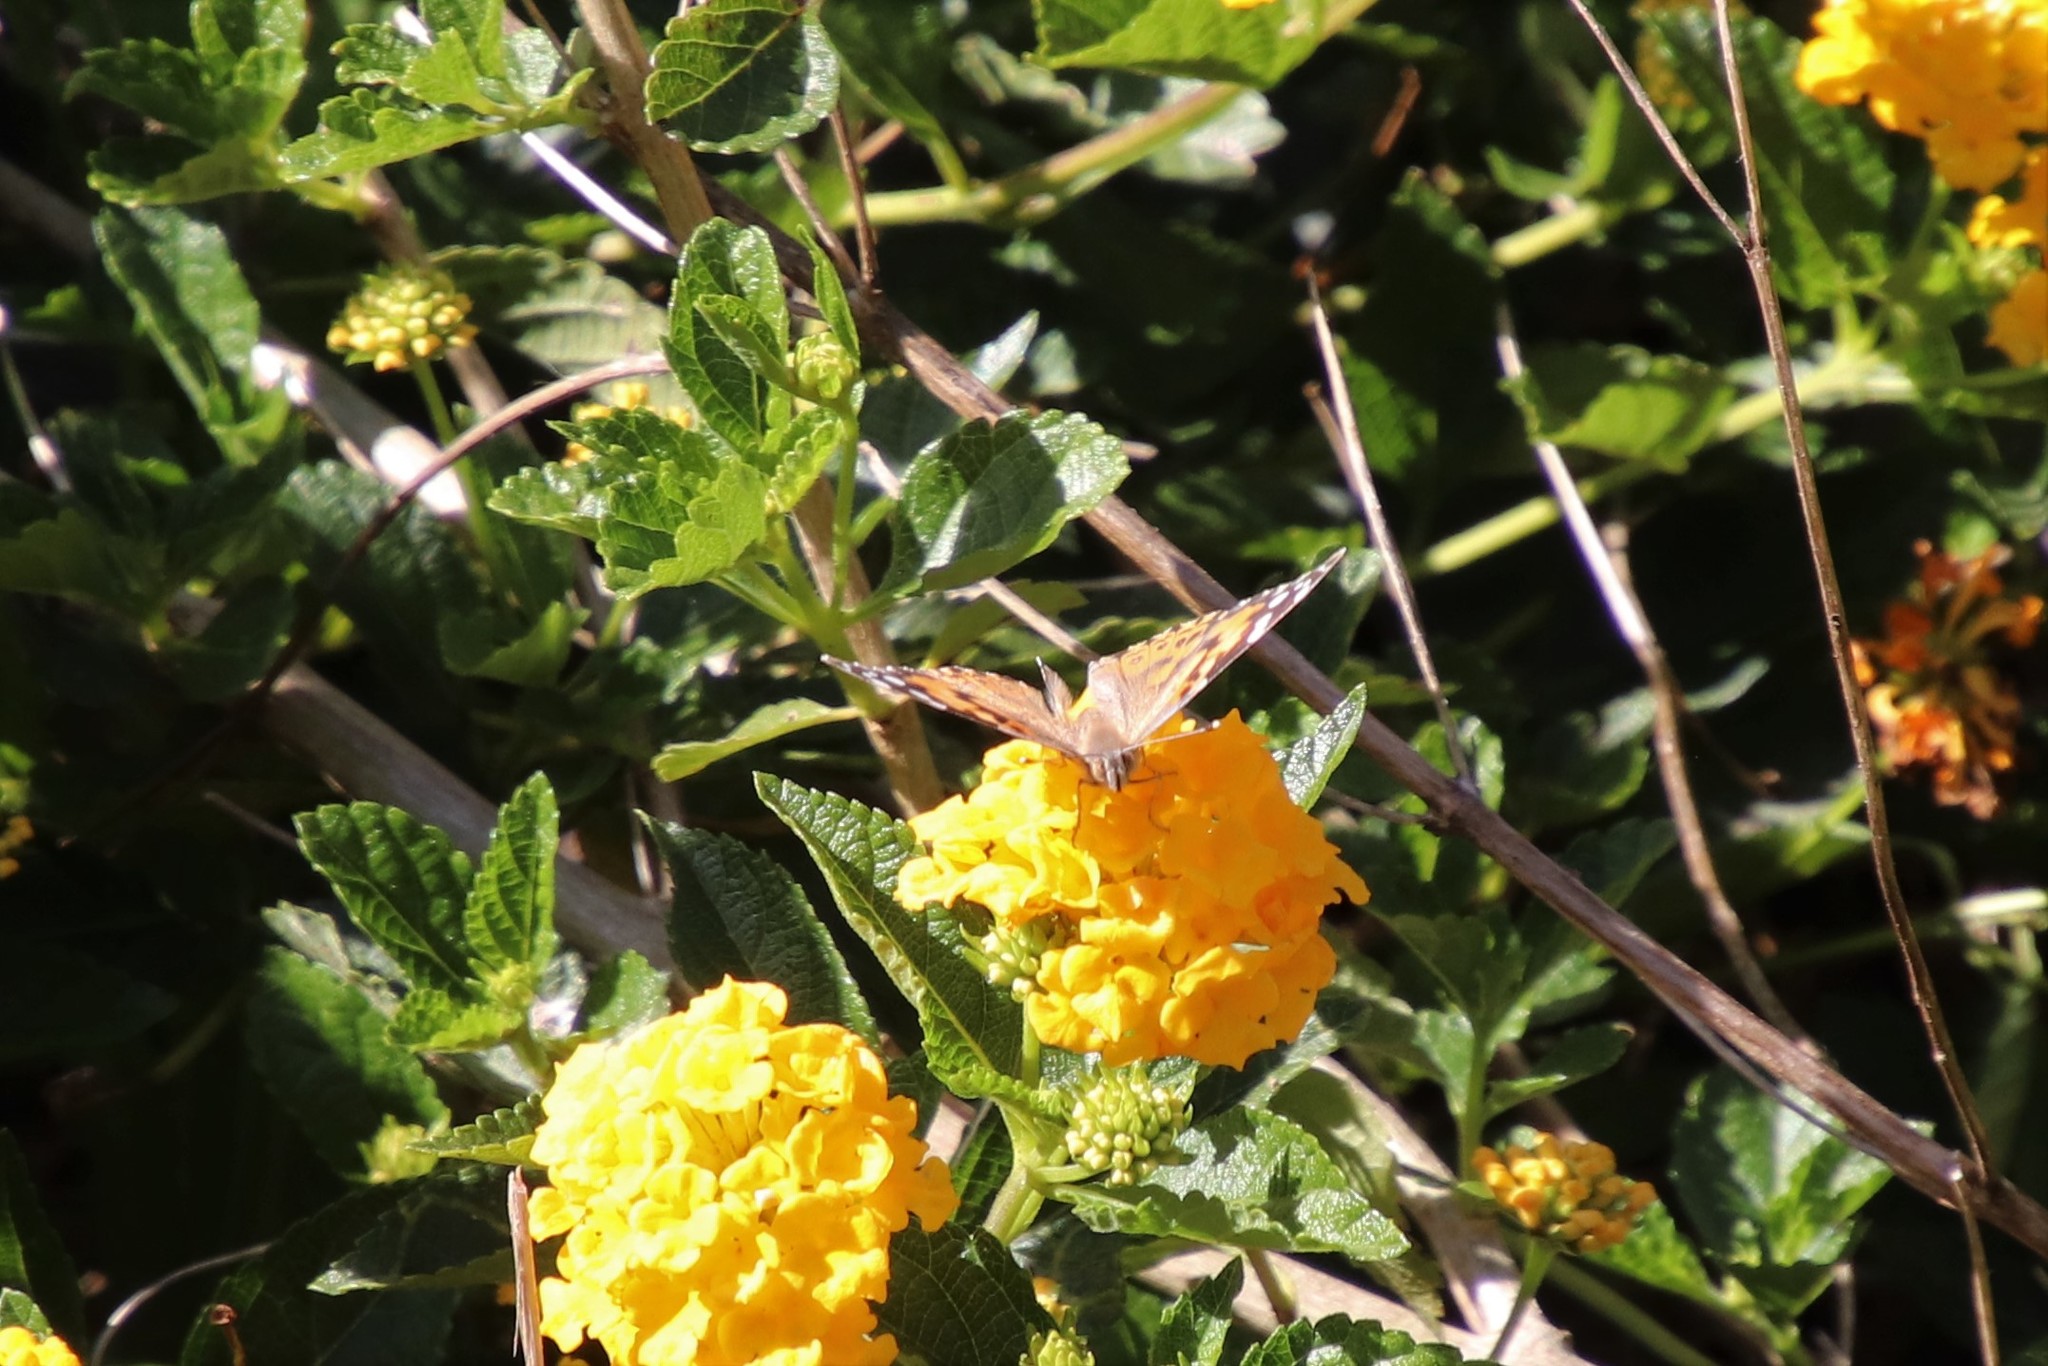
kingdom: Animalia
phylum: Arthropoda
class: Insecta
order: Lepidoptera
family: Nymphalidae
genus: Vanessa
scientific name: Vanessa cardui
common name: Painted lady
